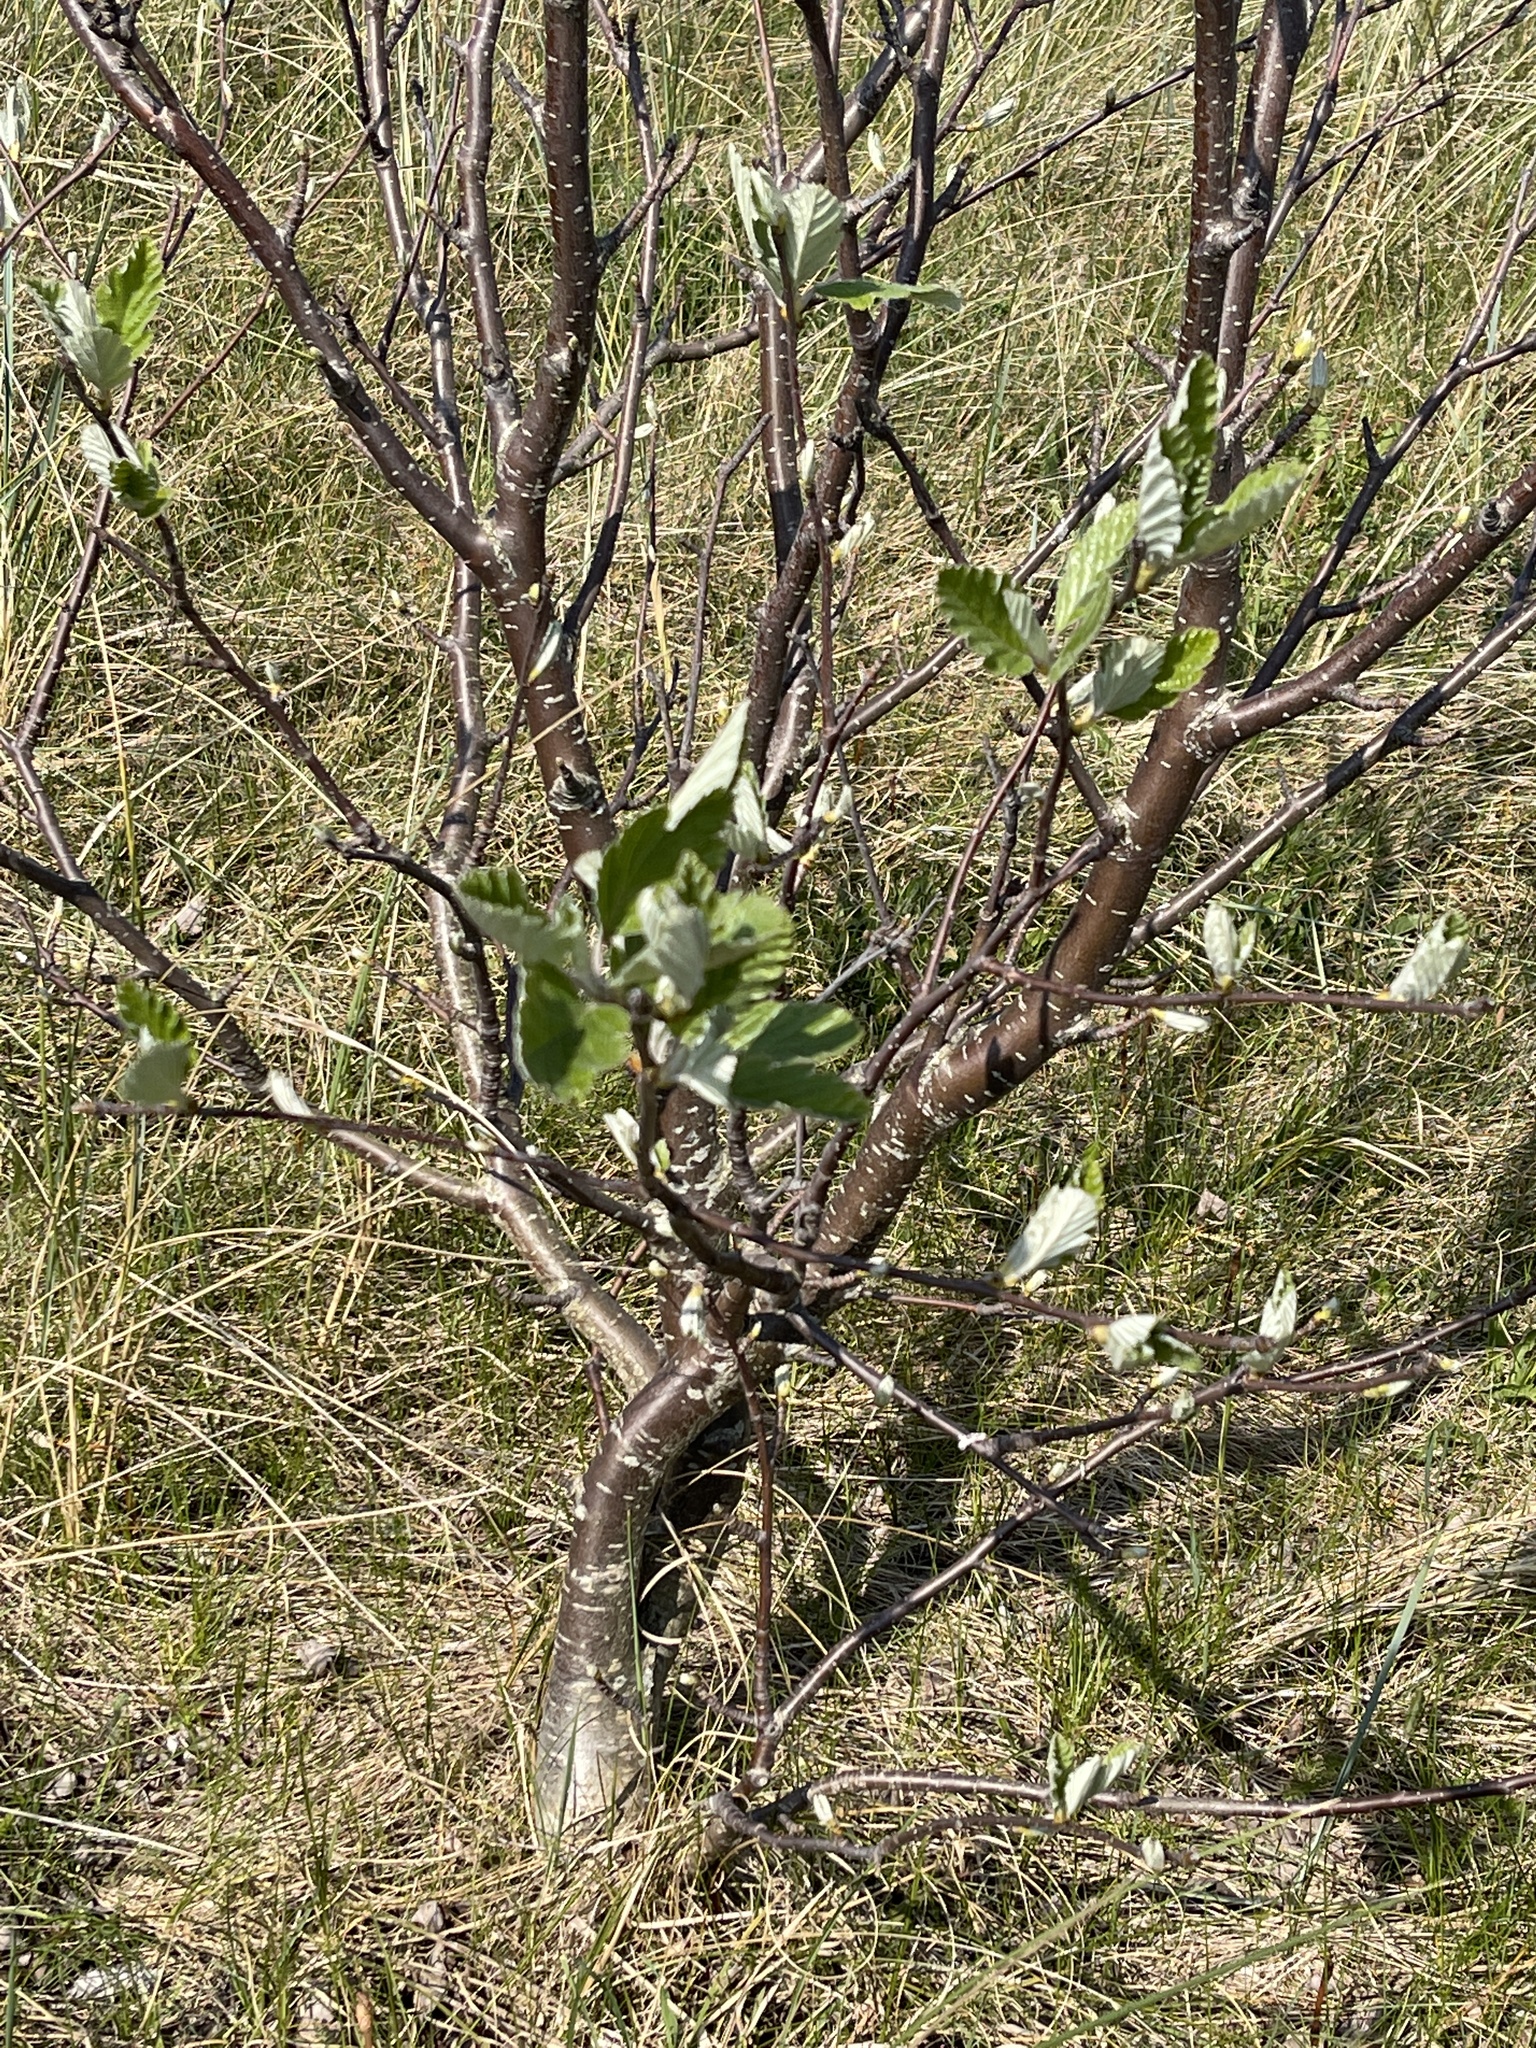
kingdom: Plantae
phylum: Tracheophyta
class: Magnoliopsida
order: Rosales
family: Rosaceae
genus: Scandosorbus
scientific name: Scandosorbus intermedia
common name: Swedish whitebeam
